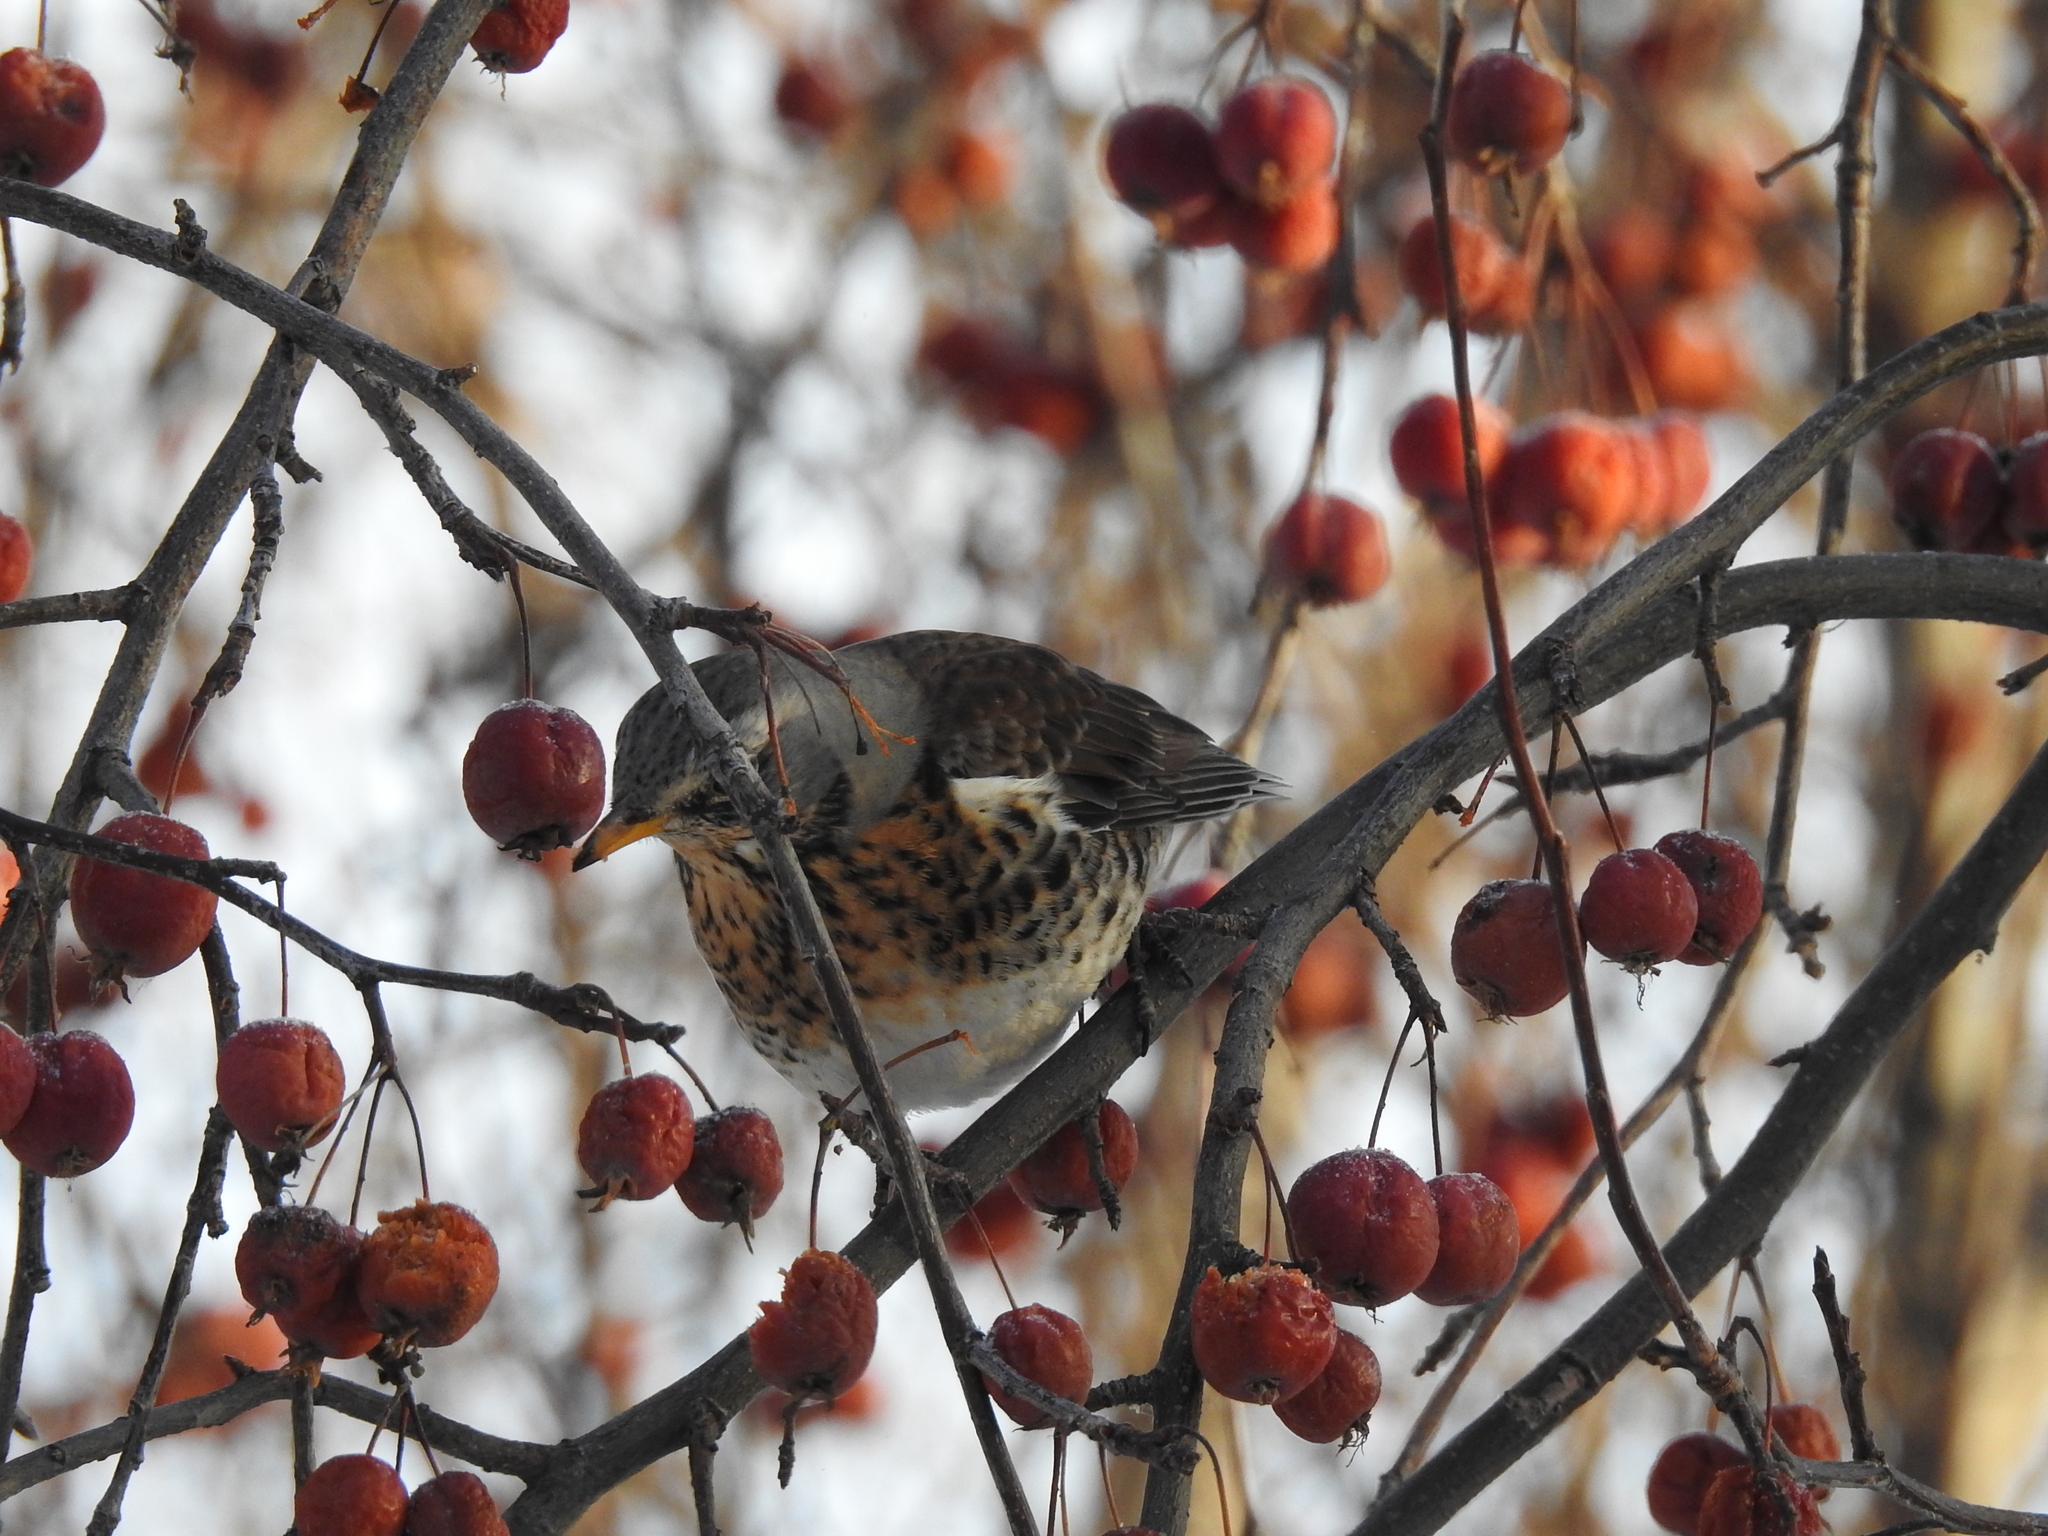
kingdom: Animalia
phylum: Chordata
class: Aves
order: Passeriformes
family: Turdidae
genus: Turdus
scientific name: Turdus pilaris
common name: Fieldfare
